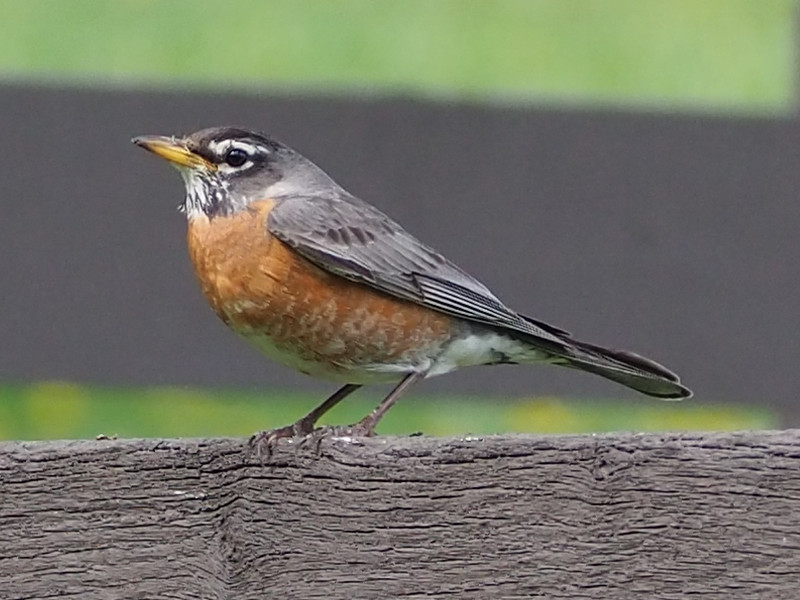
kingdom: Animalia
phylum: Chordata
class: Aves
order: Passeriformes
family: Turdidae
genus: Turdus
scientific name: Turdus migratorius
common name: American robin
